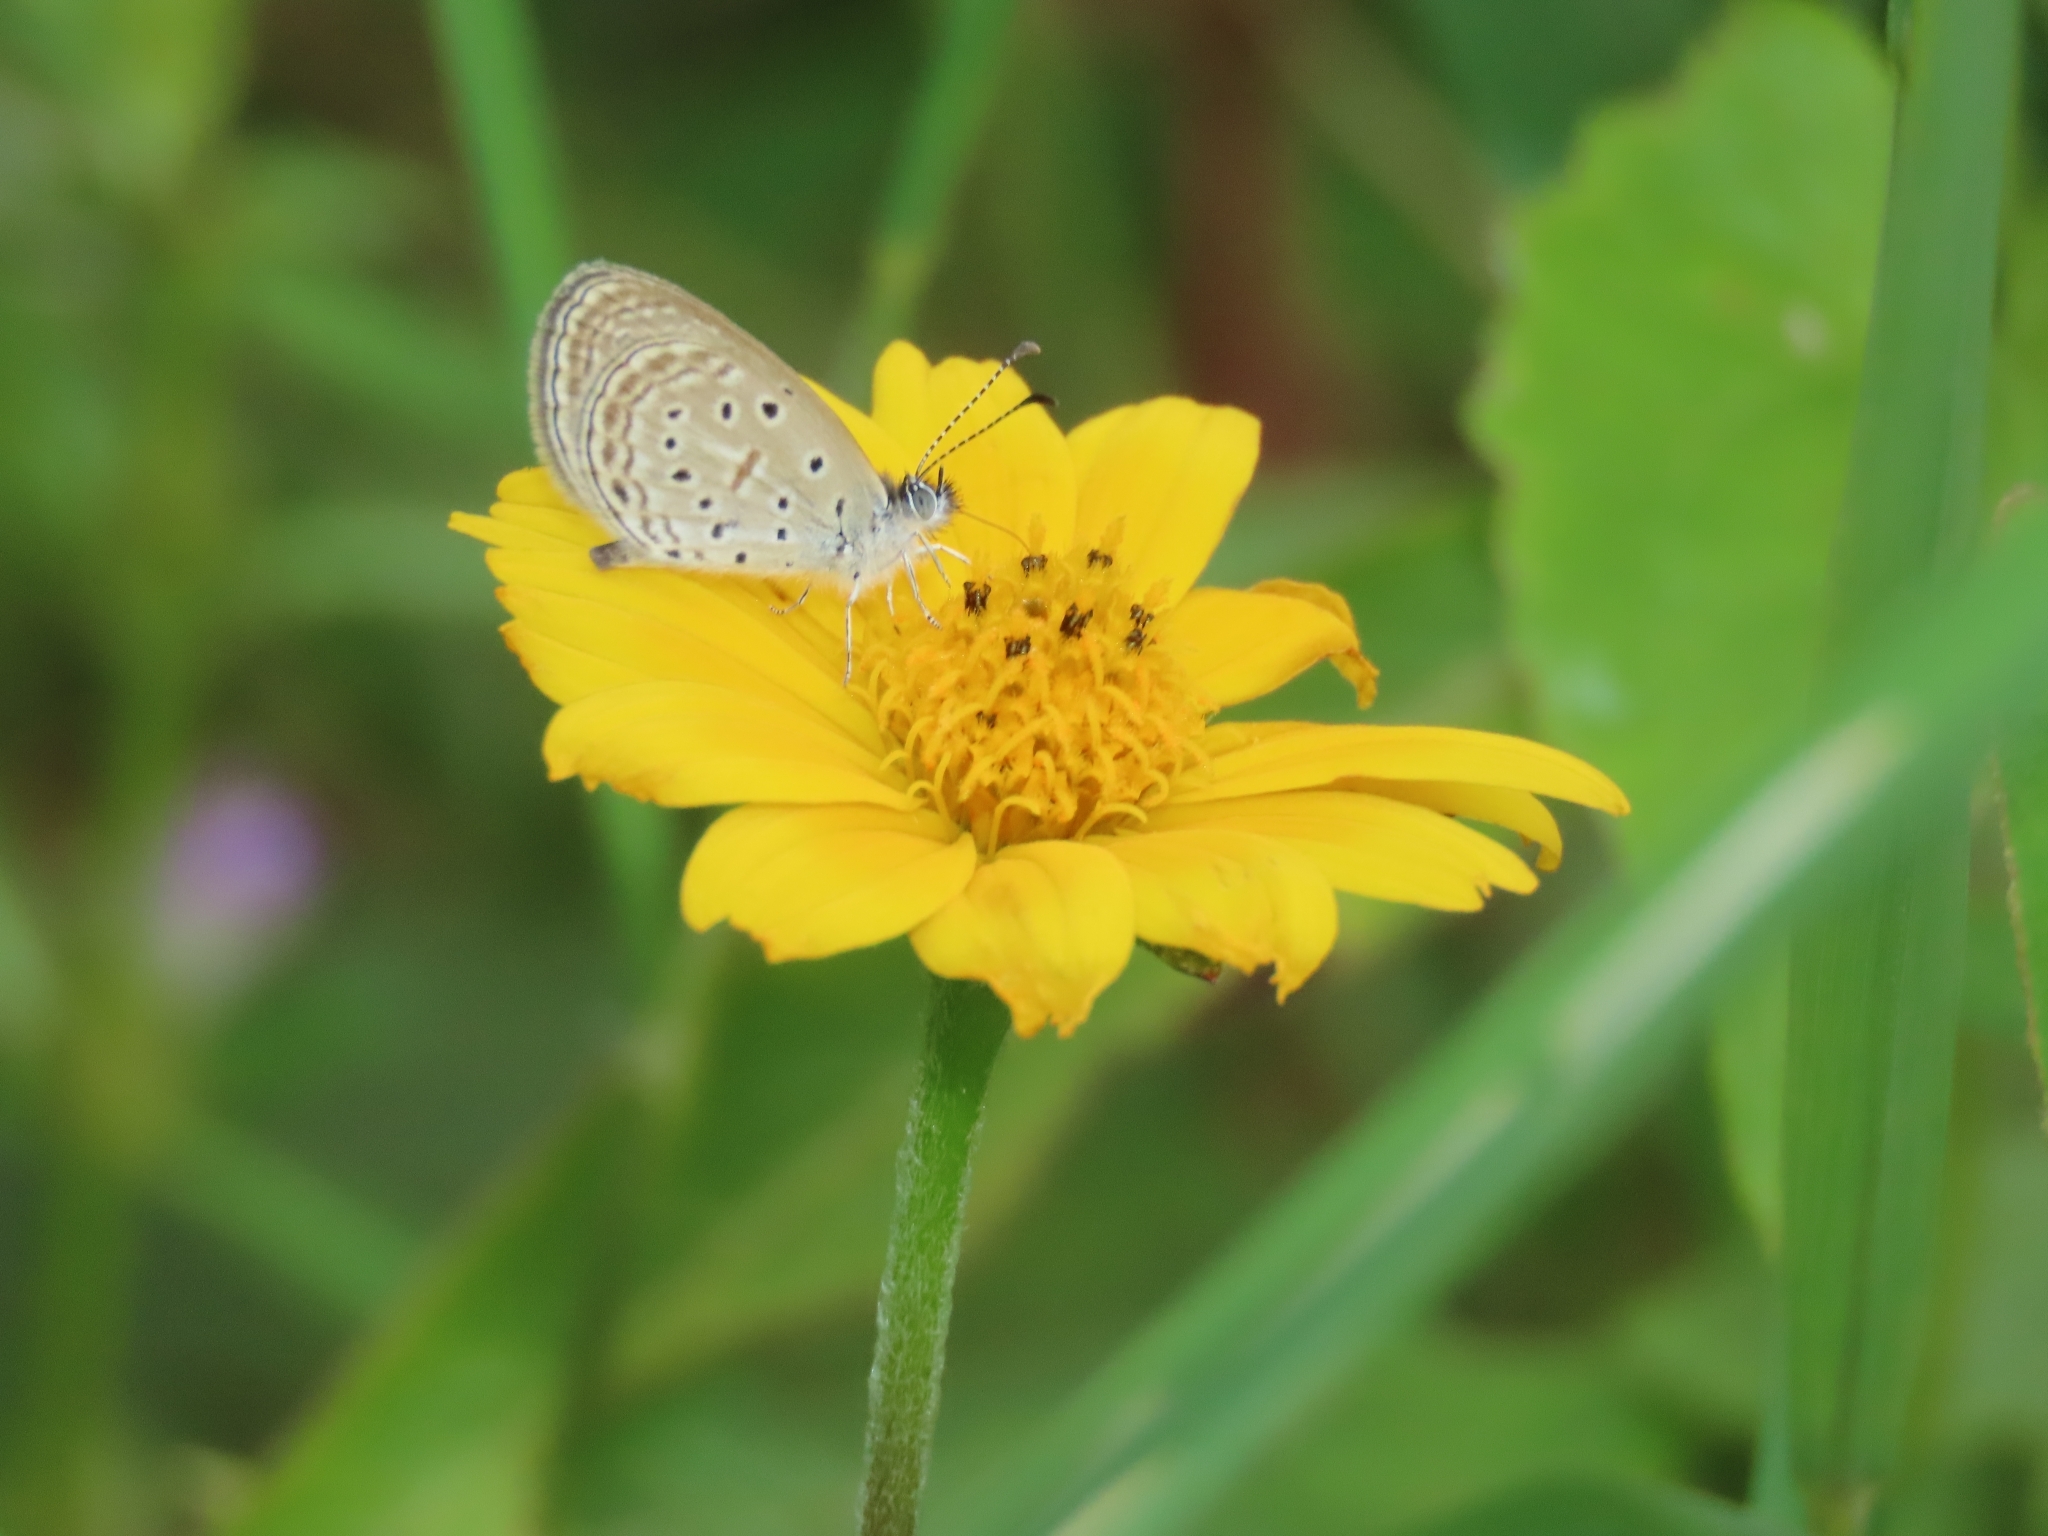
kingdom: Animalia
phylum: Arthropoda
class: Insecta
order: Lepidoptera
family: Lycaenidae
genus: Zizula
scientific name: Zizula hylax
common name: Gaika blue
